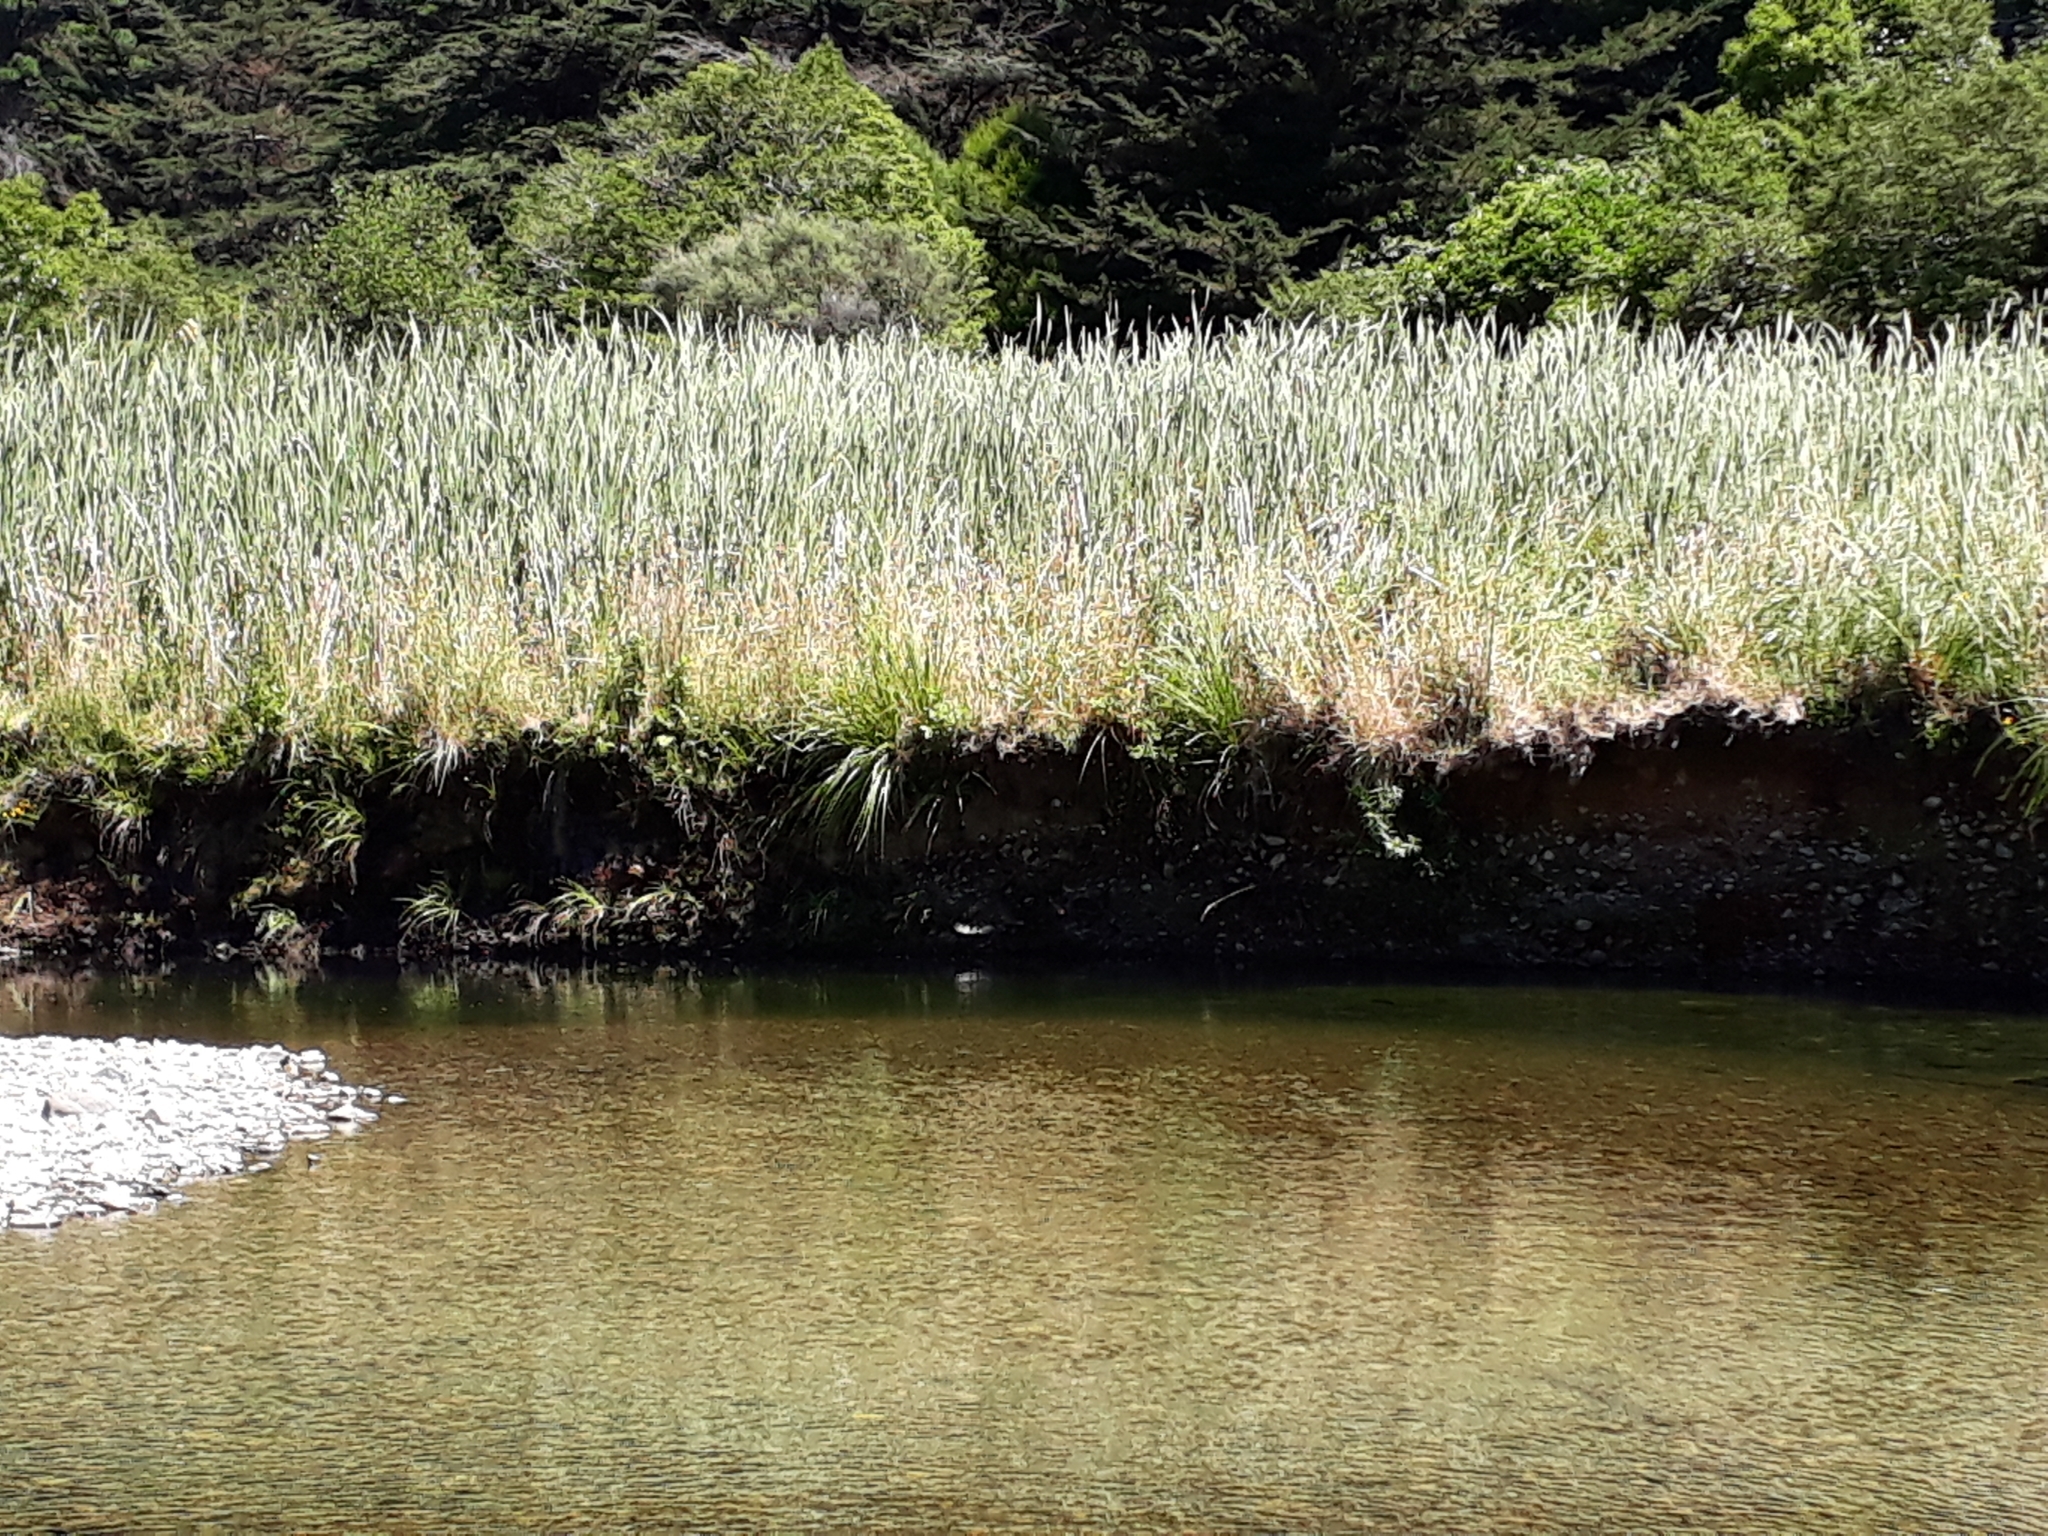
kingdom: Plantae
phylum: Tracheophyta
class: Liliopsida
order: Poales
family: Typhaceae
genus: Typha
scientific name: Typha orientalis
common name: Bullrush
